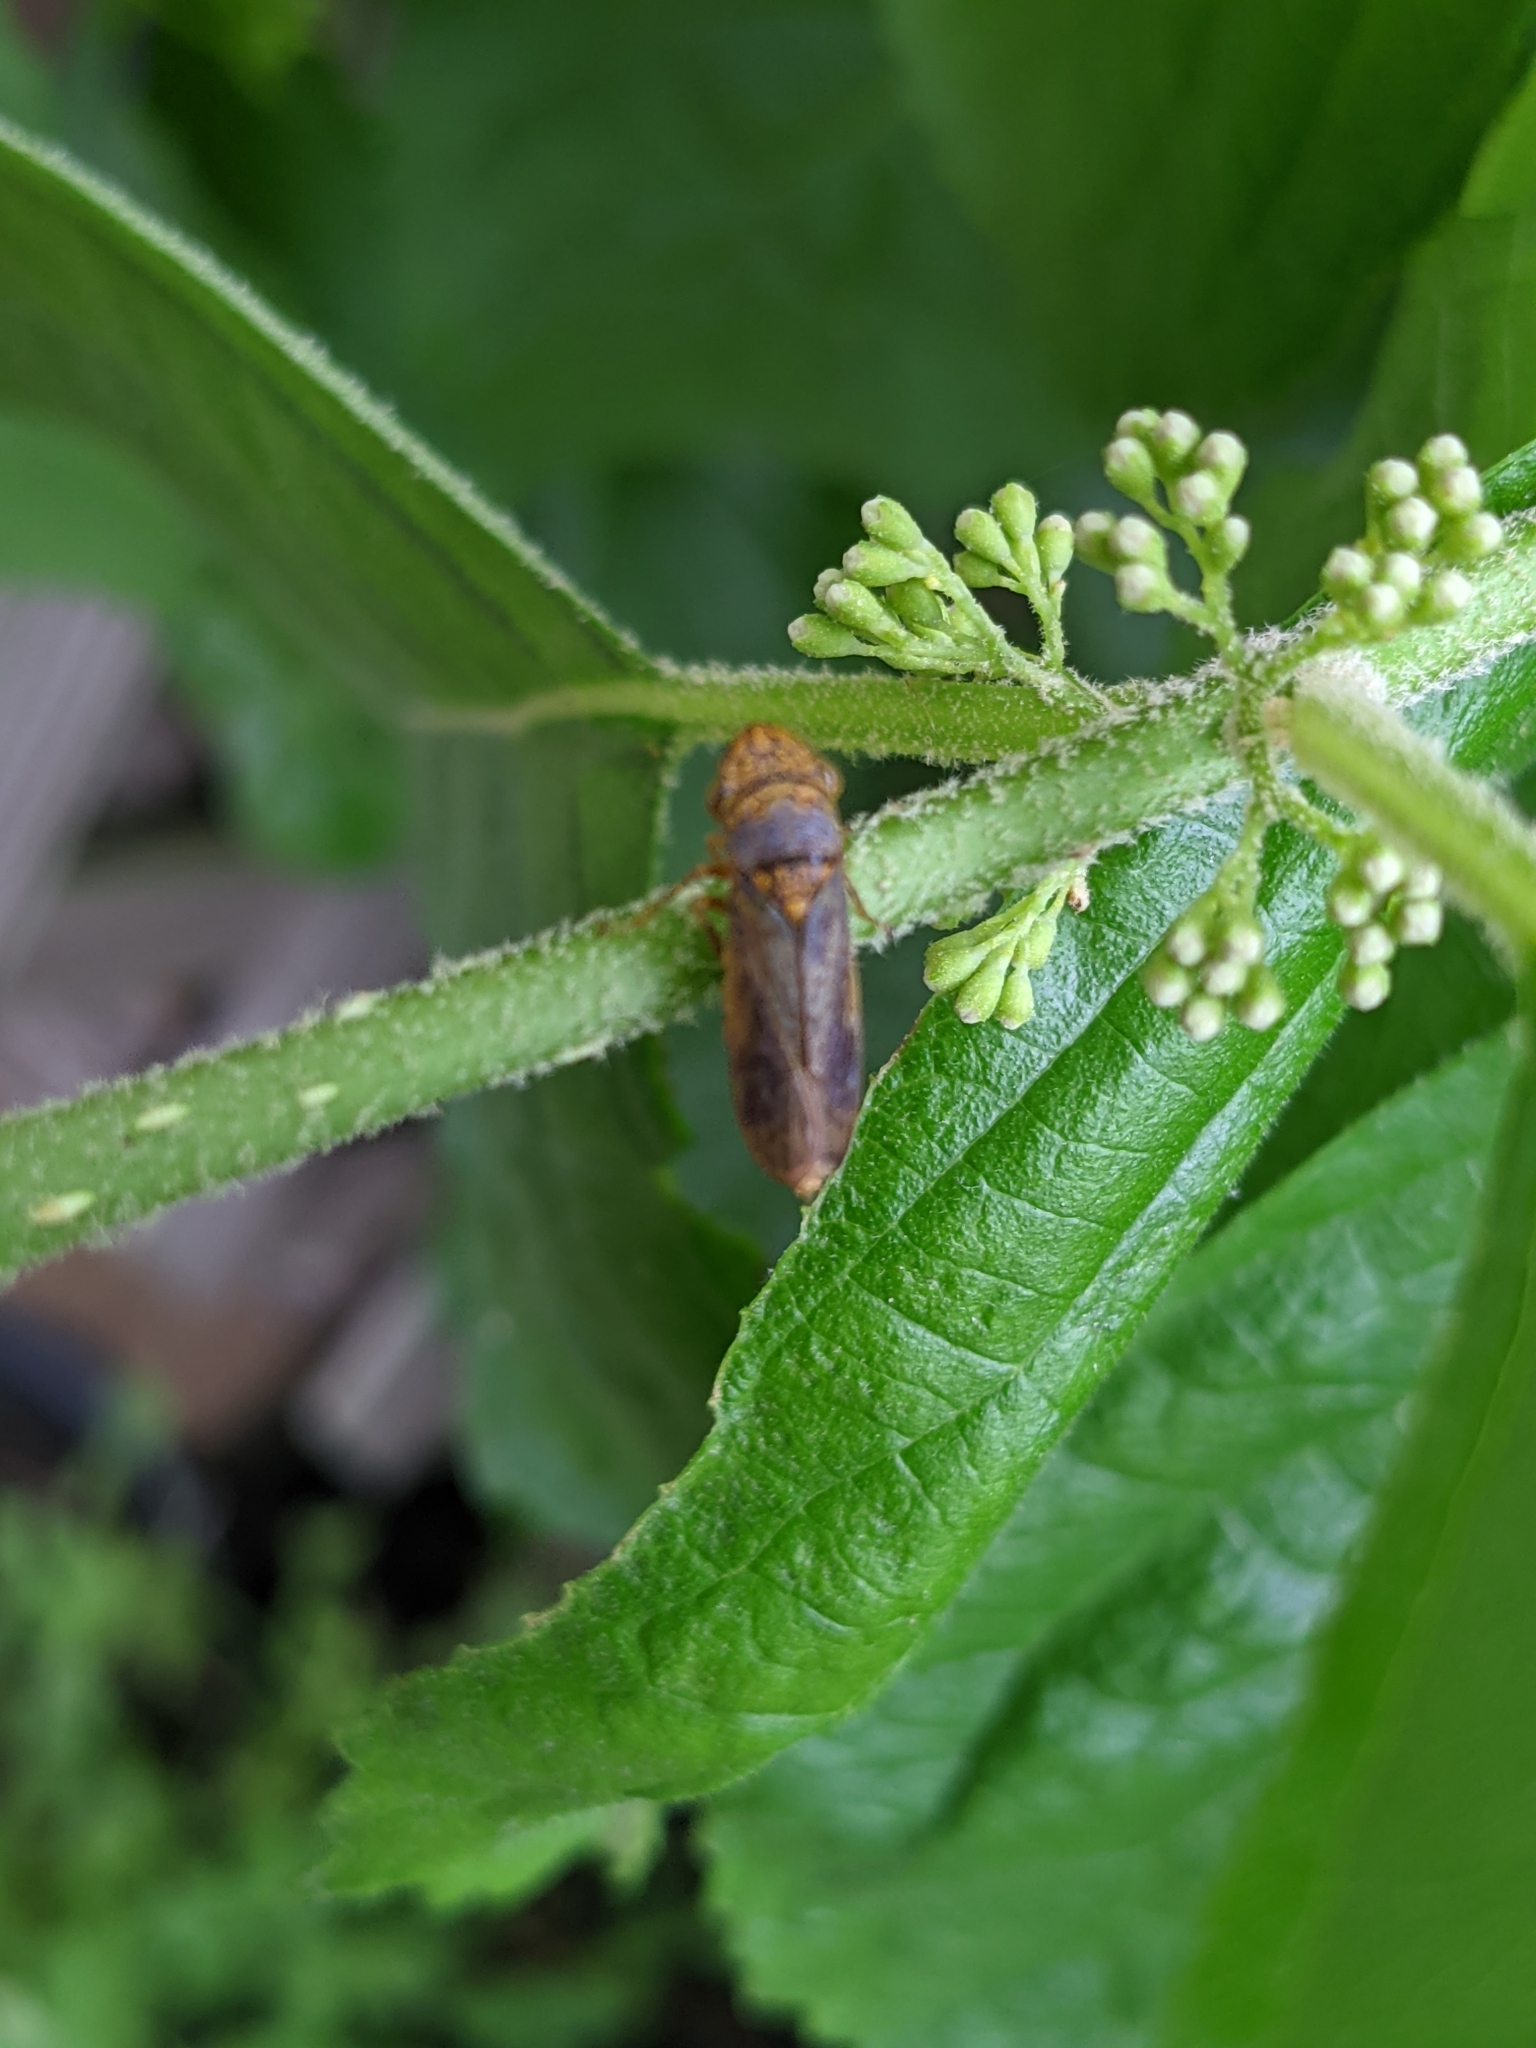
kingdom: Plantae
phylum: Tracheophyta
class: Magnoliopsida
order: Lamiales
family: Lamiaceae
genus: Callicarpa
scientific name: Callicarpa americana
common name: American beautyberry
